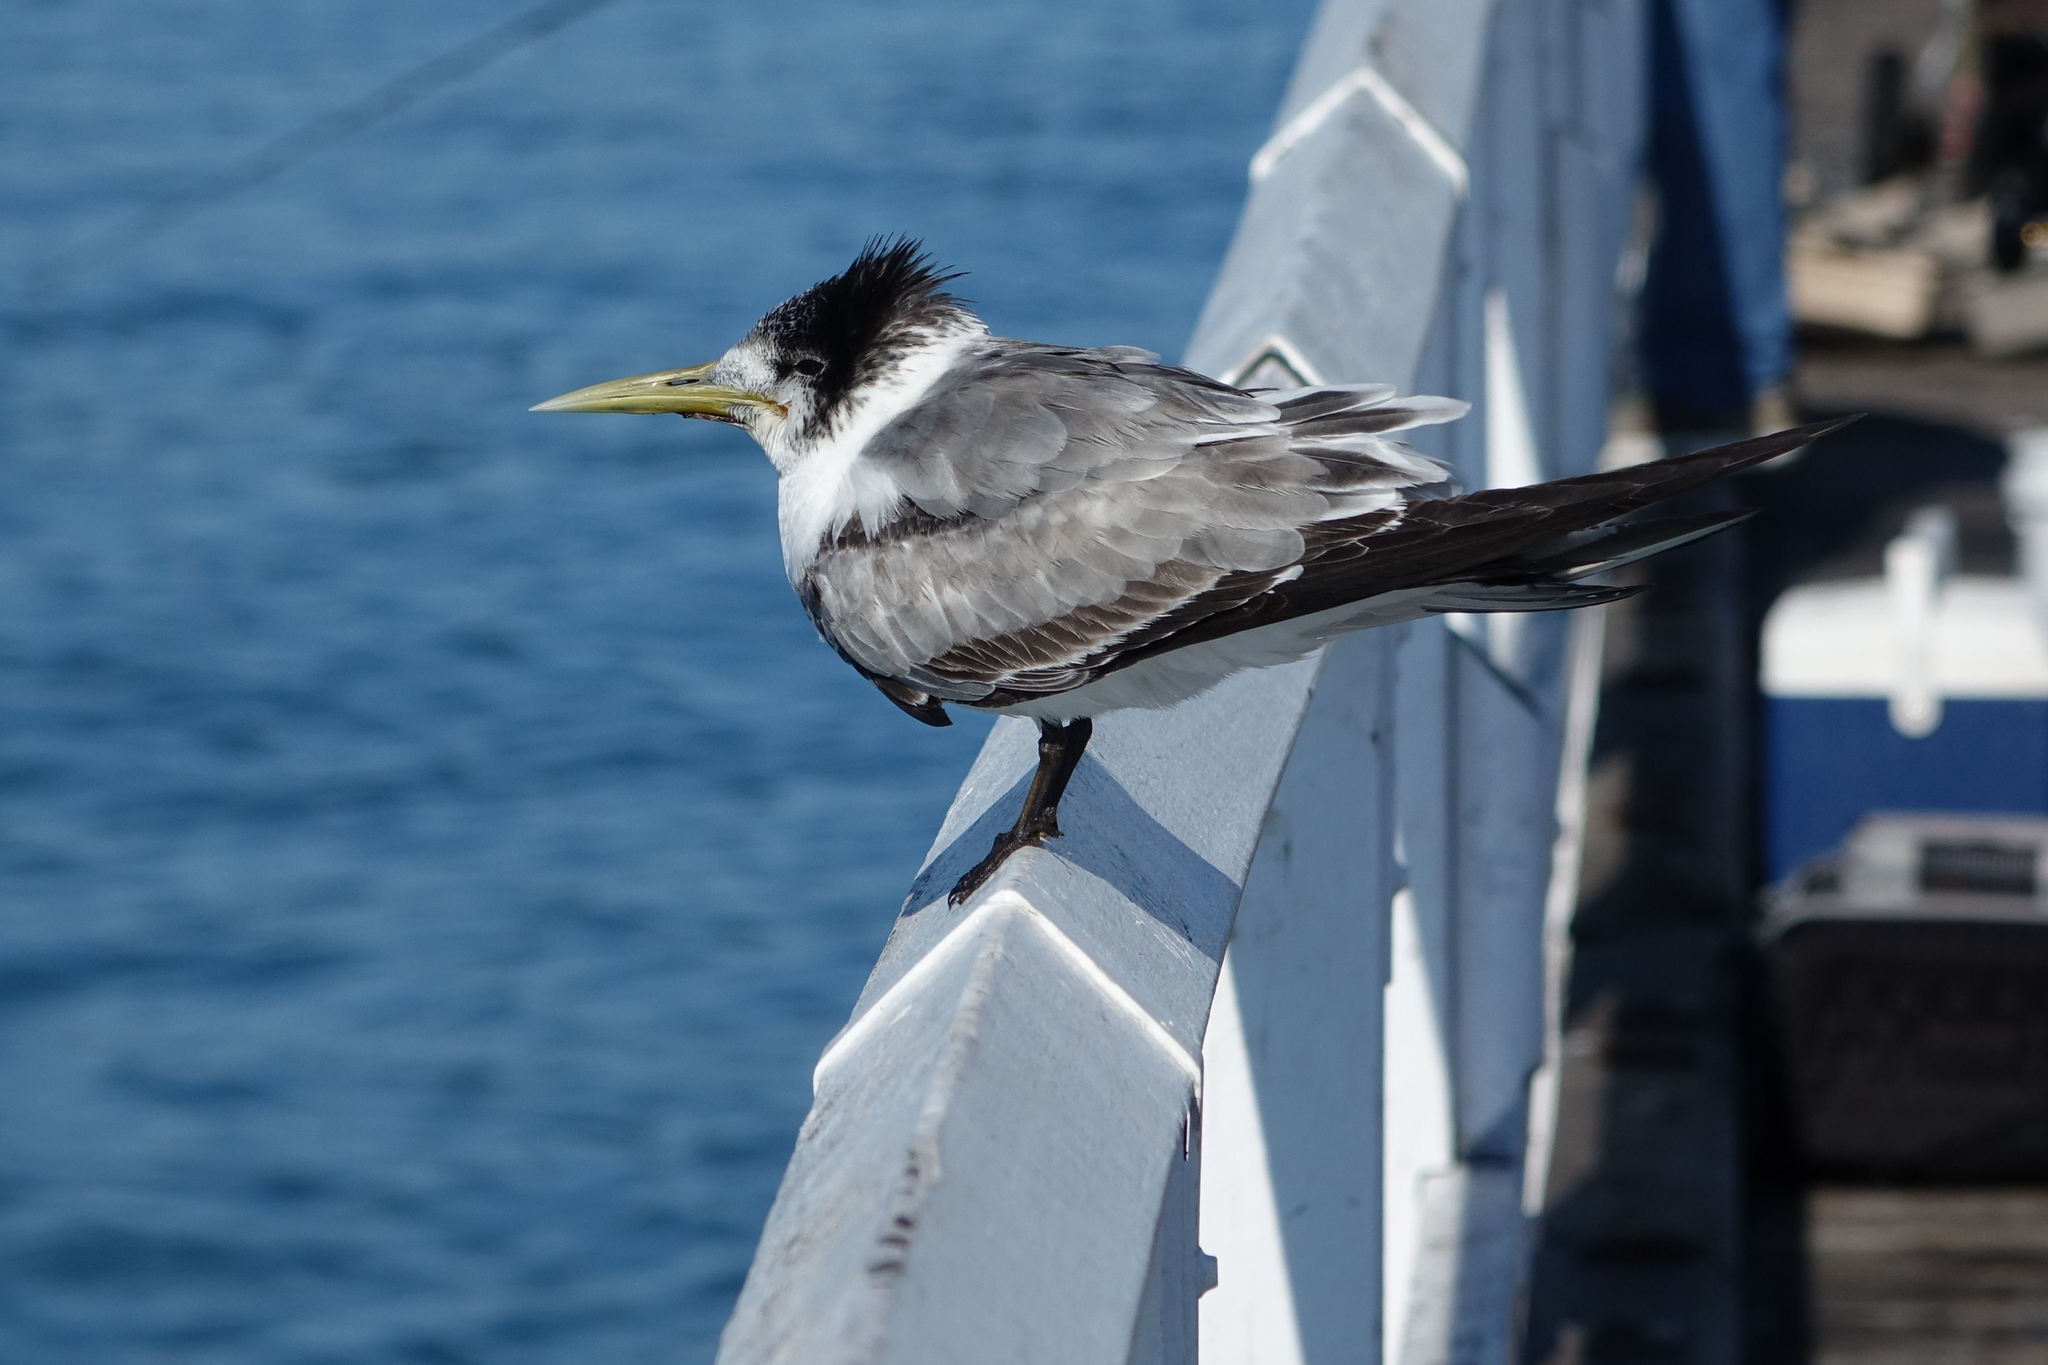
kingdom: Animalia
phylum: Chordata
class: Aves
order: Charadriiformes
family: Laridae
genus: Thalasseus
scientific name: Thalasseus bergii
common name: Greater crested tern
